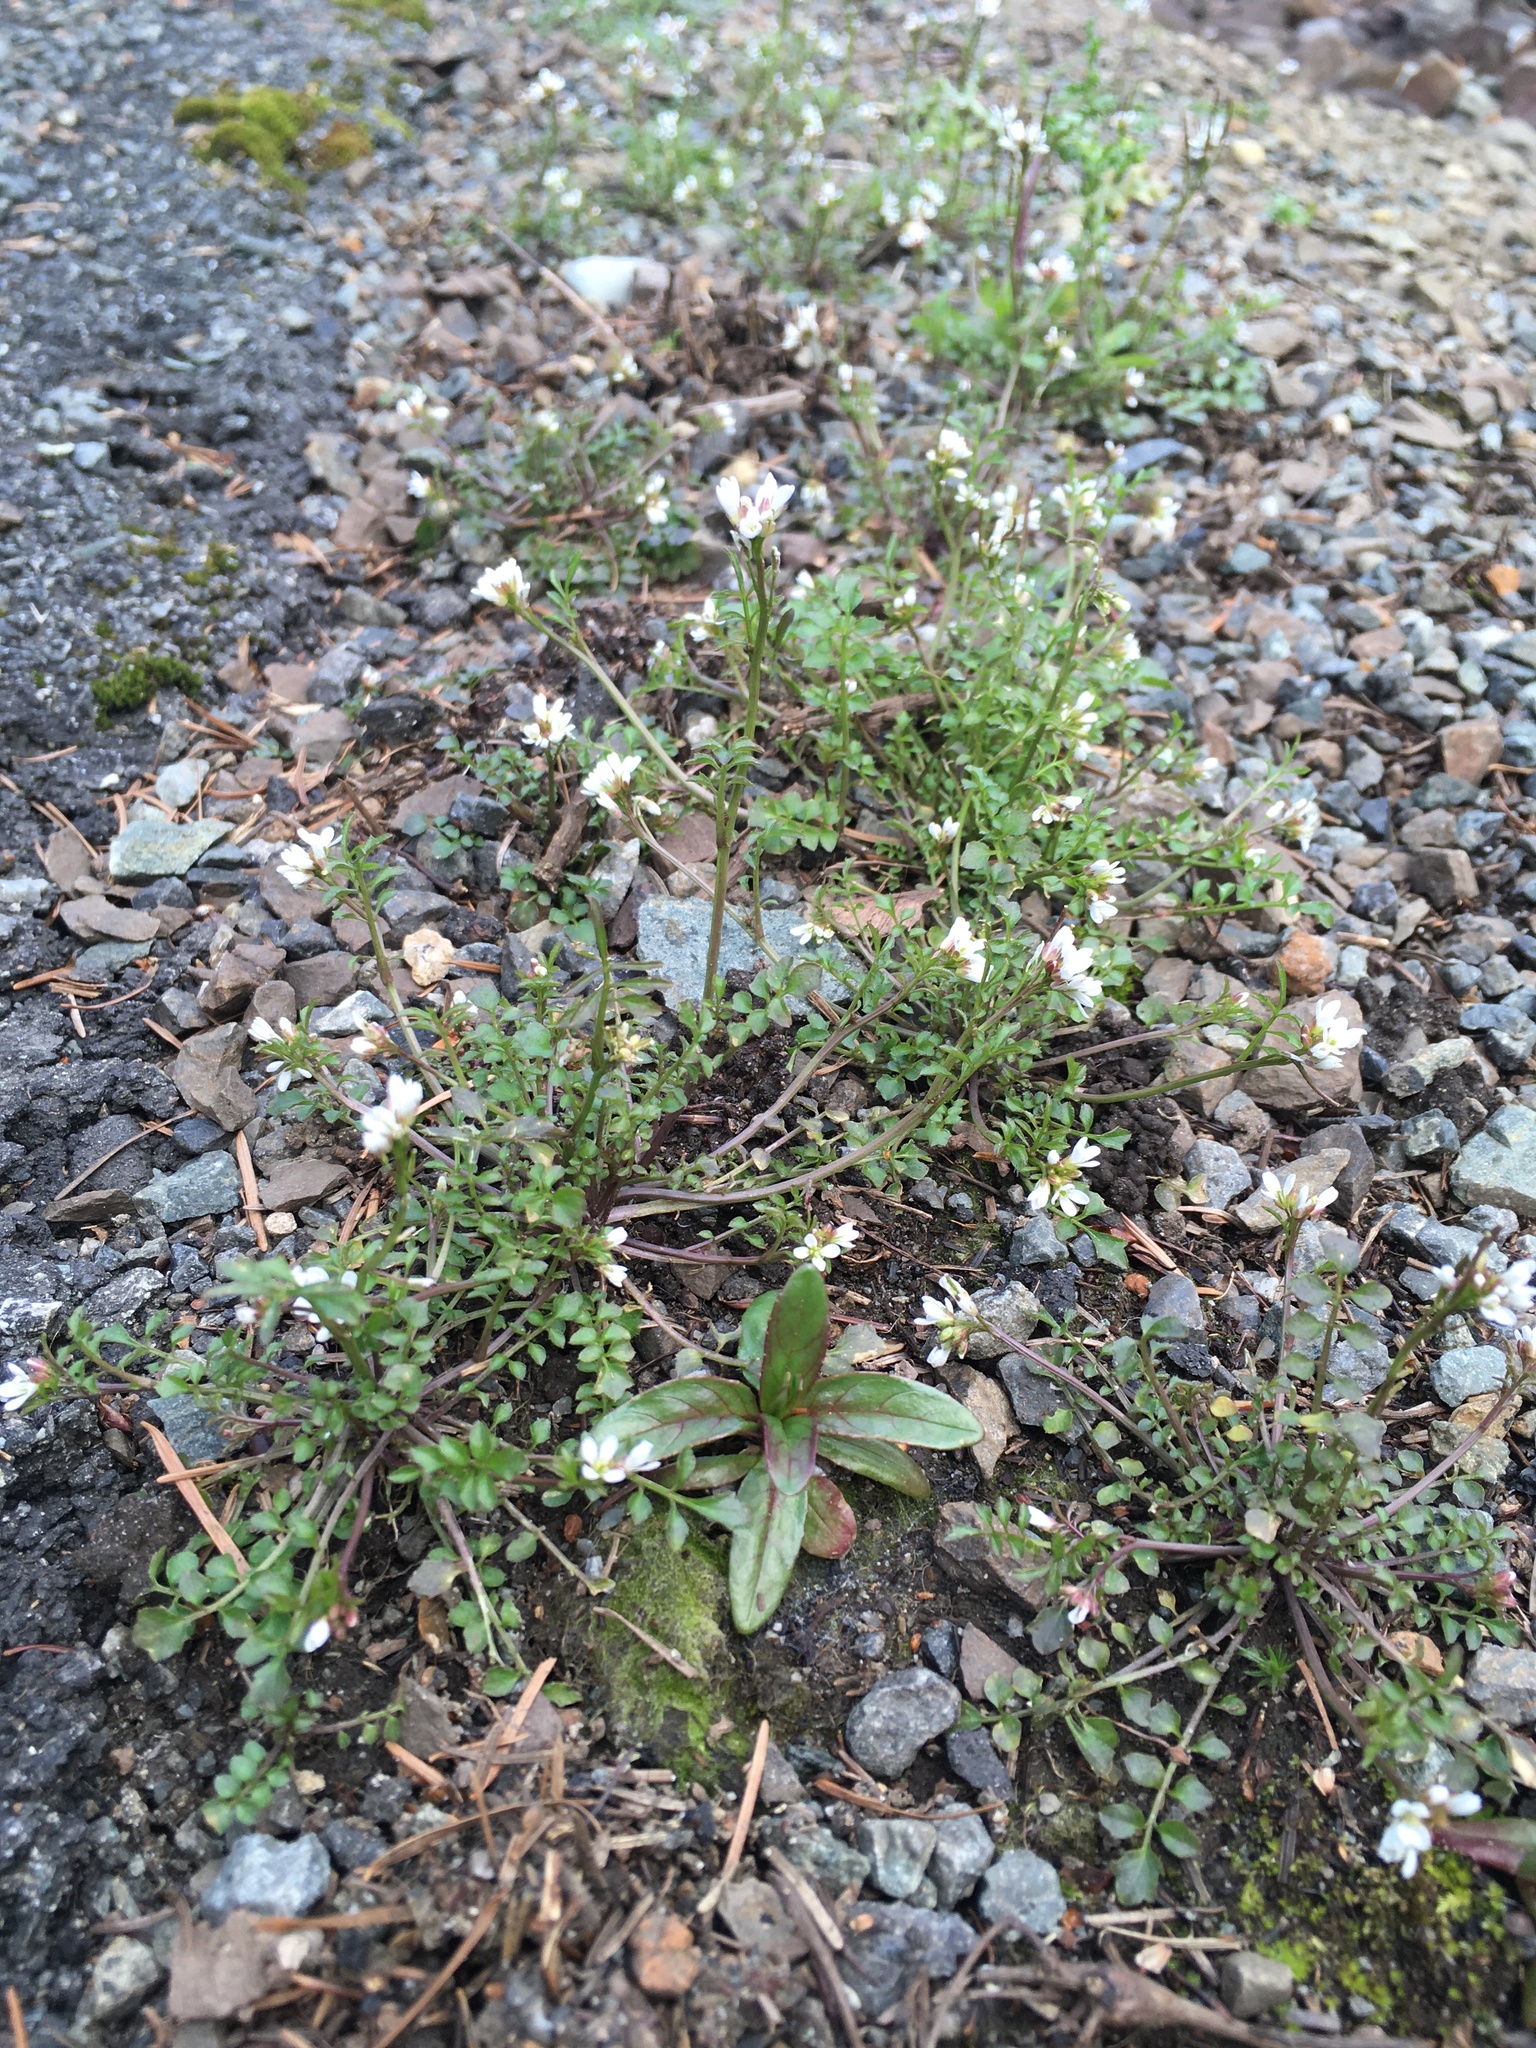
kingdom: Plantae
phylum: Tracheophyta
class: Magnoliopsida
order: Brassicales
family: Brassicaceae
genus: Cardamine
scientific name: Cardamine hirsuta
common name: Hairy bittercress
